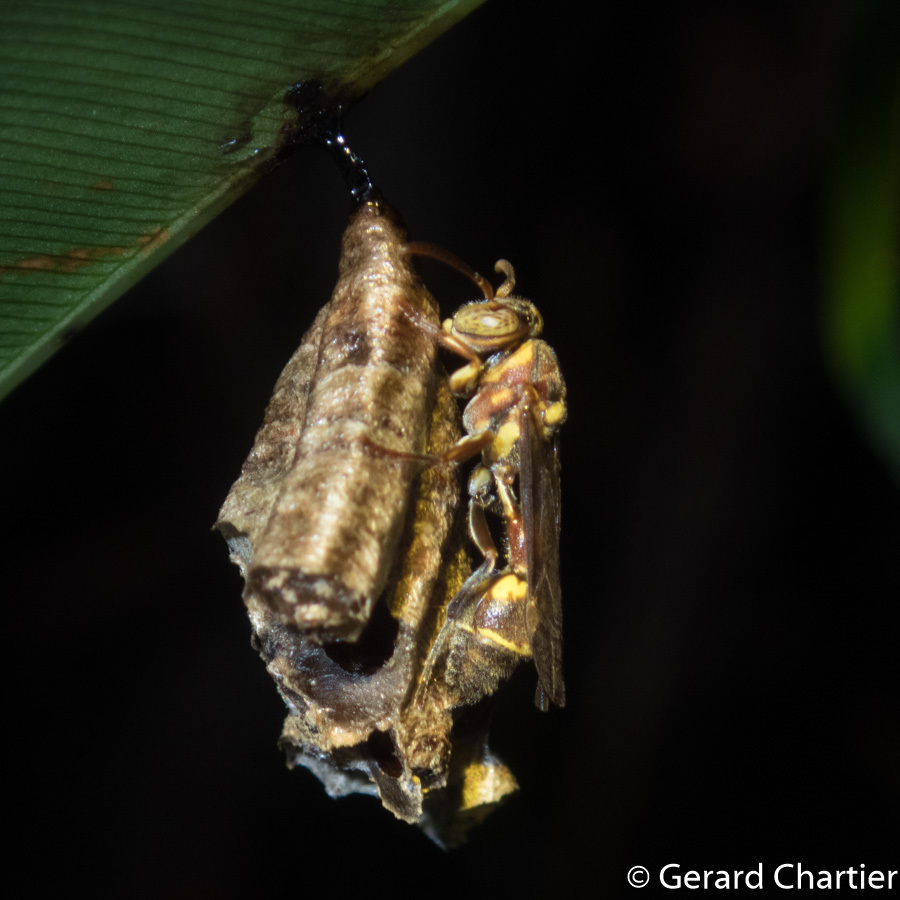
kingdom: Animalia
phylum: Arthropoda
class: Insecta
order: Hymenoptera
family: Vespidae
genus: Ropalidia
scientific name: Ropalidia stigma
